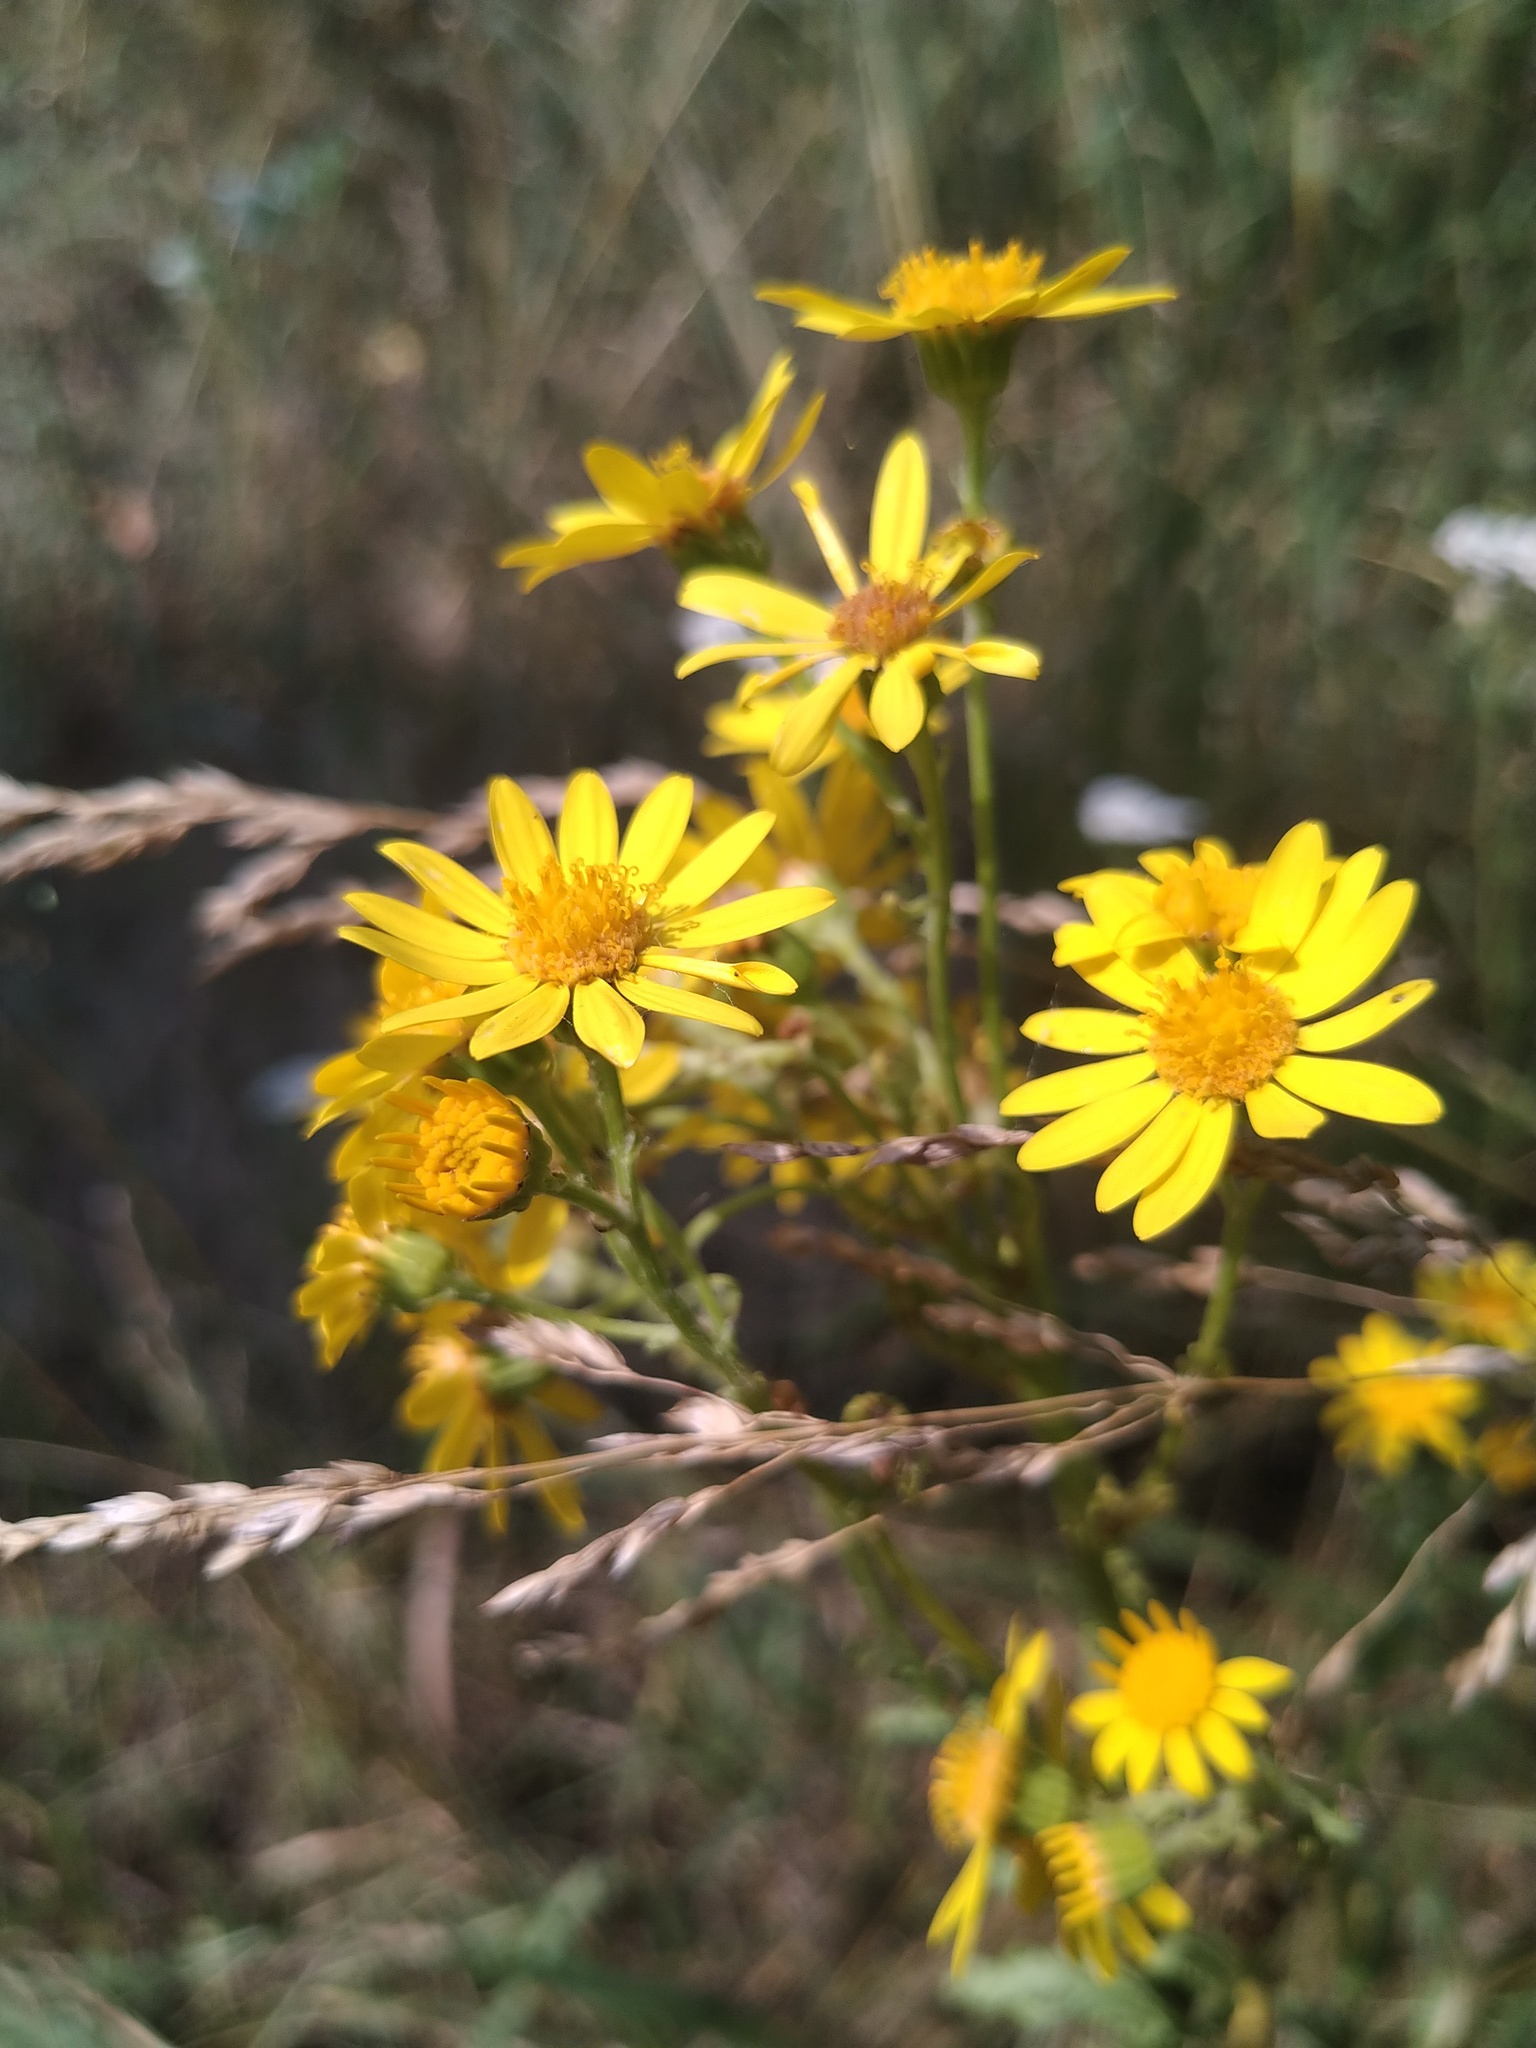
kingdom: Plantae
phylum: Tracheophyta
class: Magnoliopsida
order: Asterales
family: Asteraceae
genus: Jacobaea
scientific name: Jacobaea vulgaris
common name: Stinking willie
